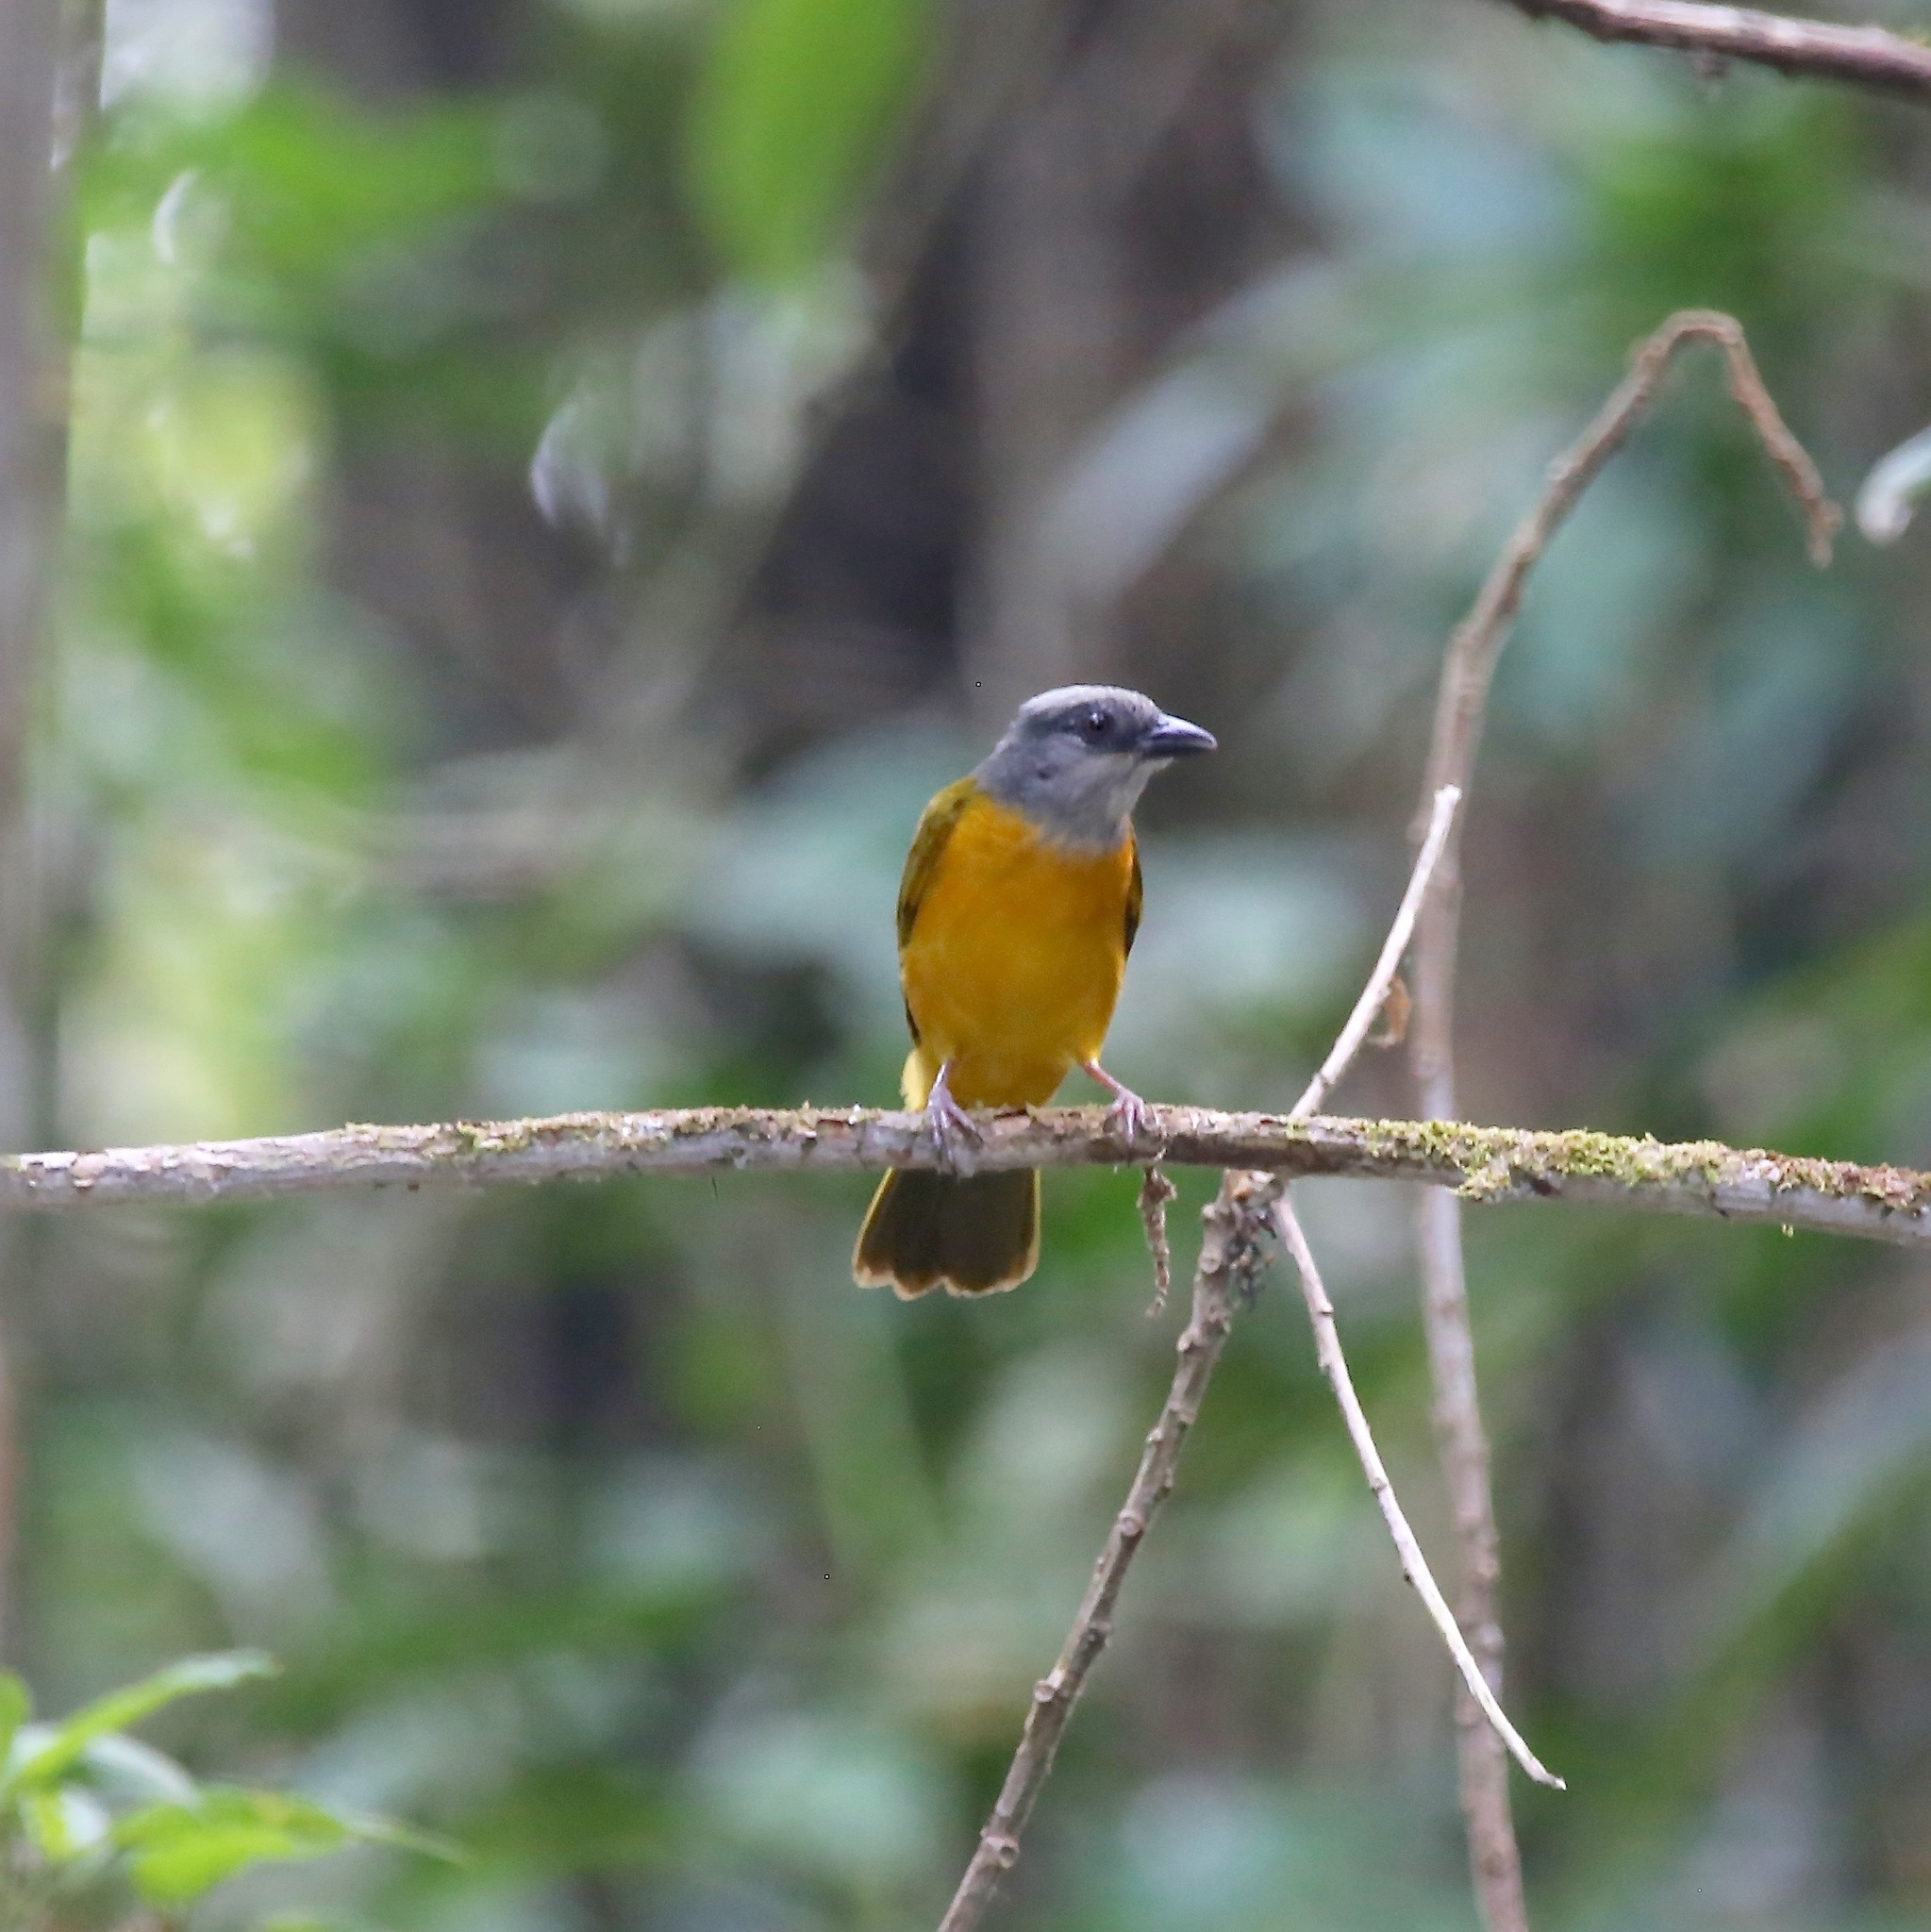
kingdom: Animalia
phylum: Chordata
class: Aves
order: Passeriformes
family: Thraupidae
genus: Eucometis
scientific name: Eucometis penicillata
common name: Grey-headed tanager
